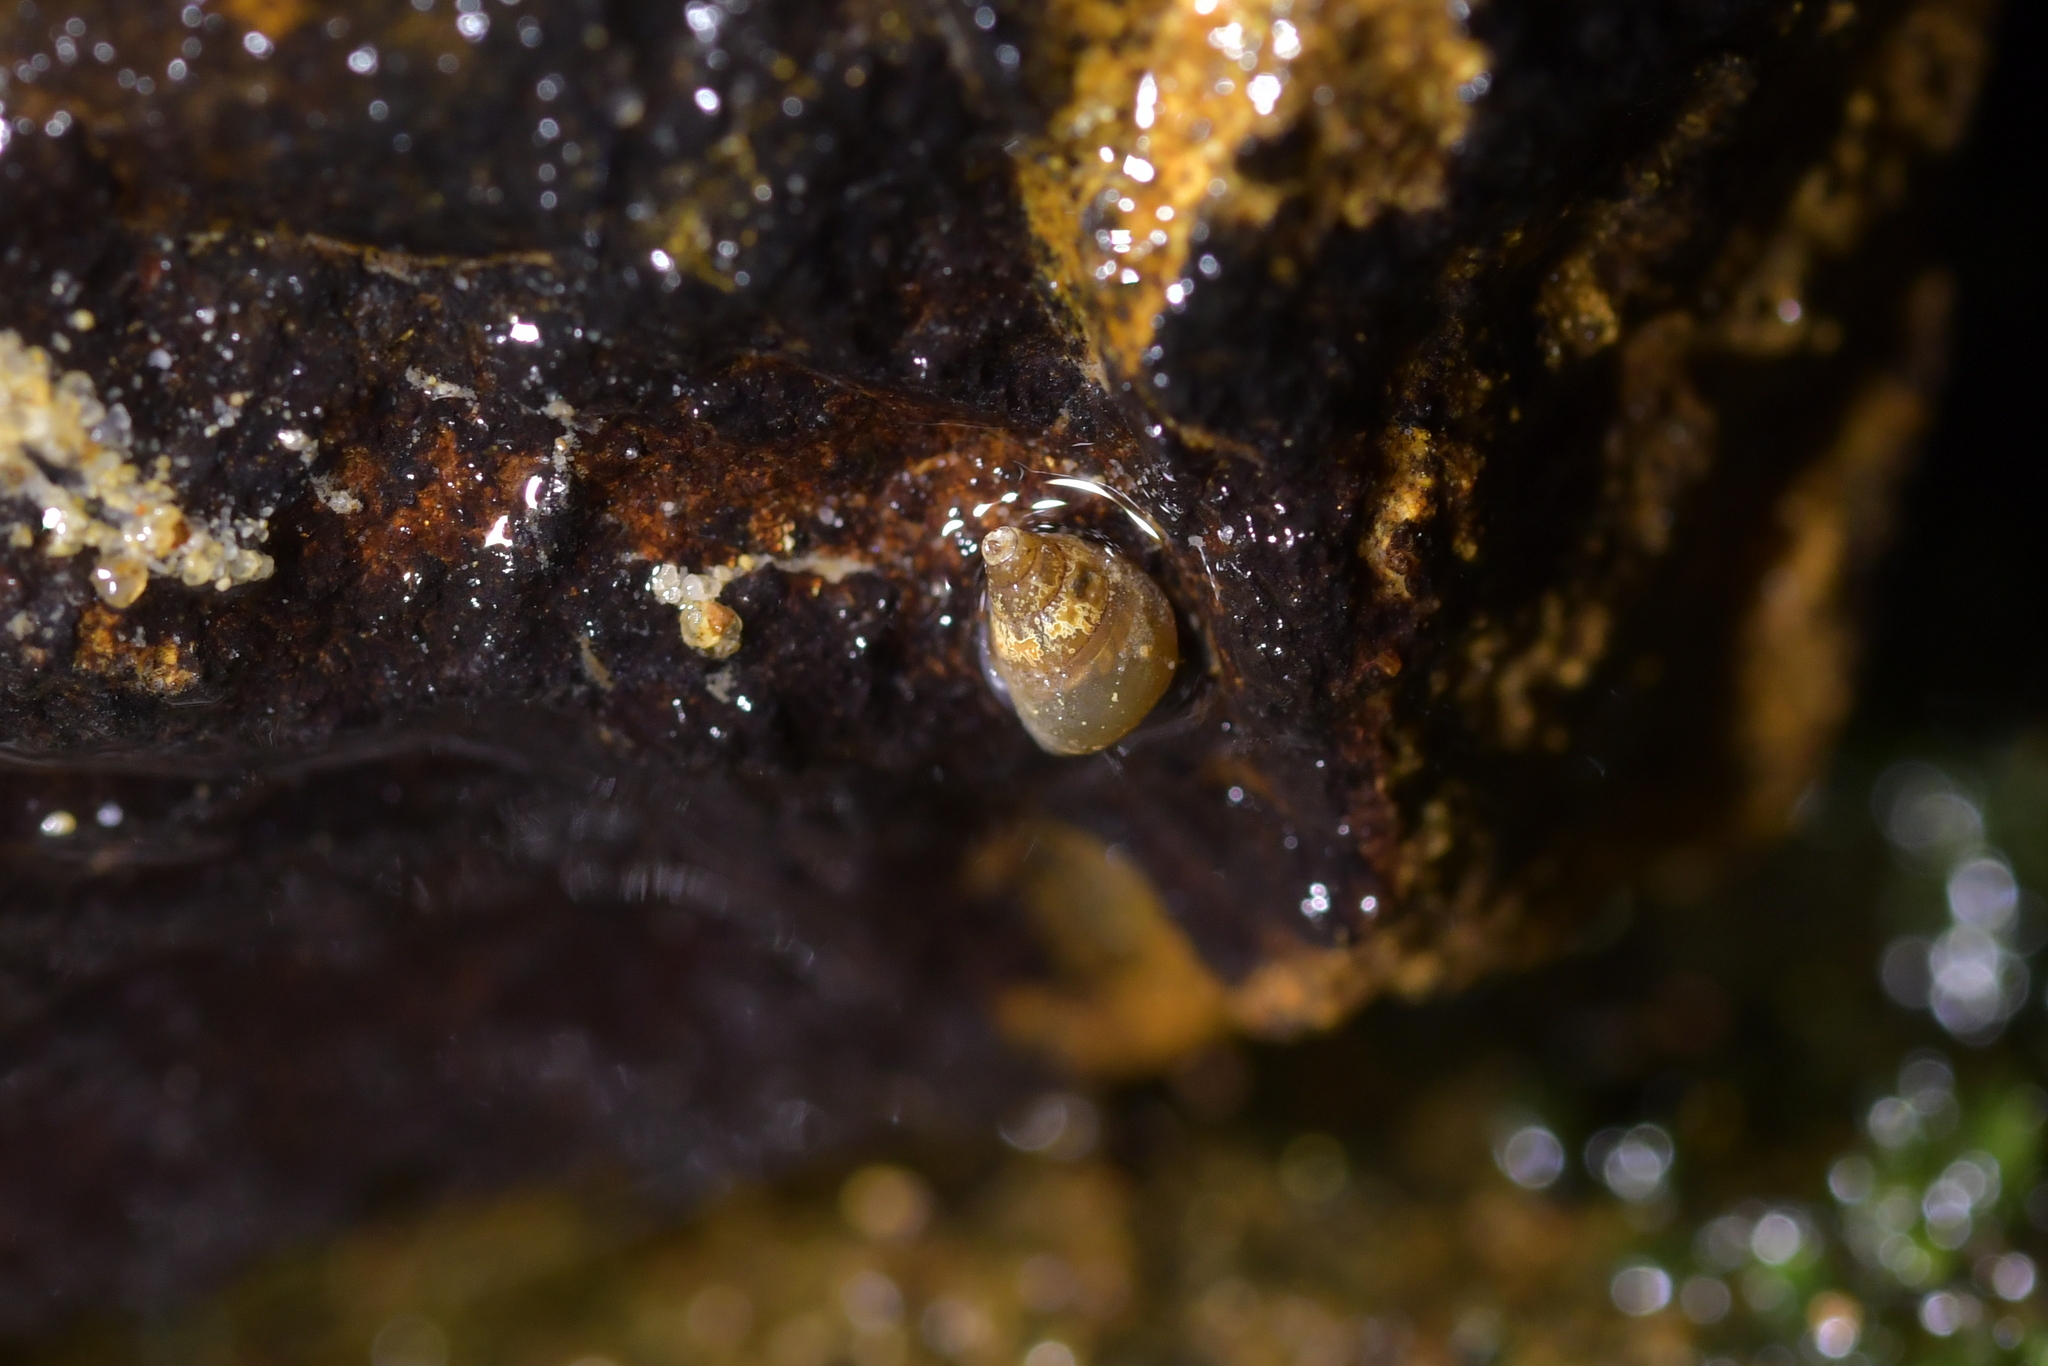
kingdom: Animalia
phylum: Mollusca
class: Gastropoda
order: Littorinimorpha
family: Tateidae
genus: Potamopyrgus
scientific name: Potamopyrgus antipodarum
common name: Jenkins' spire snail
